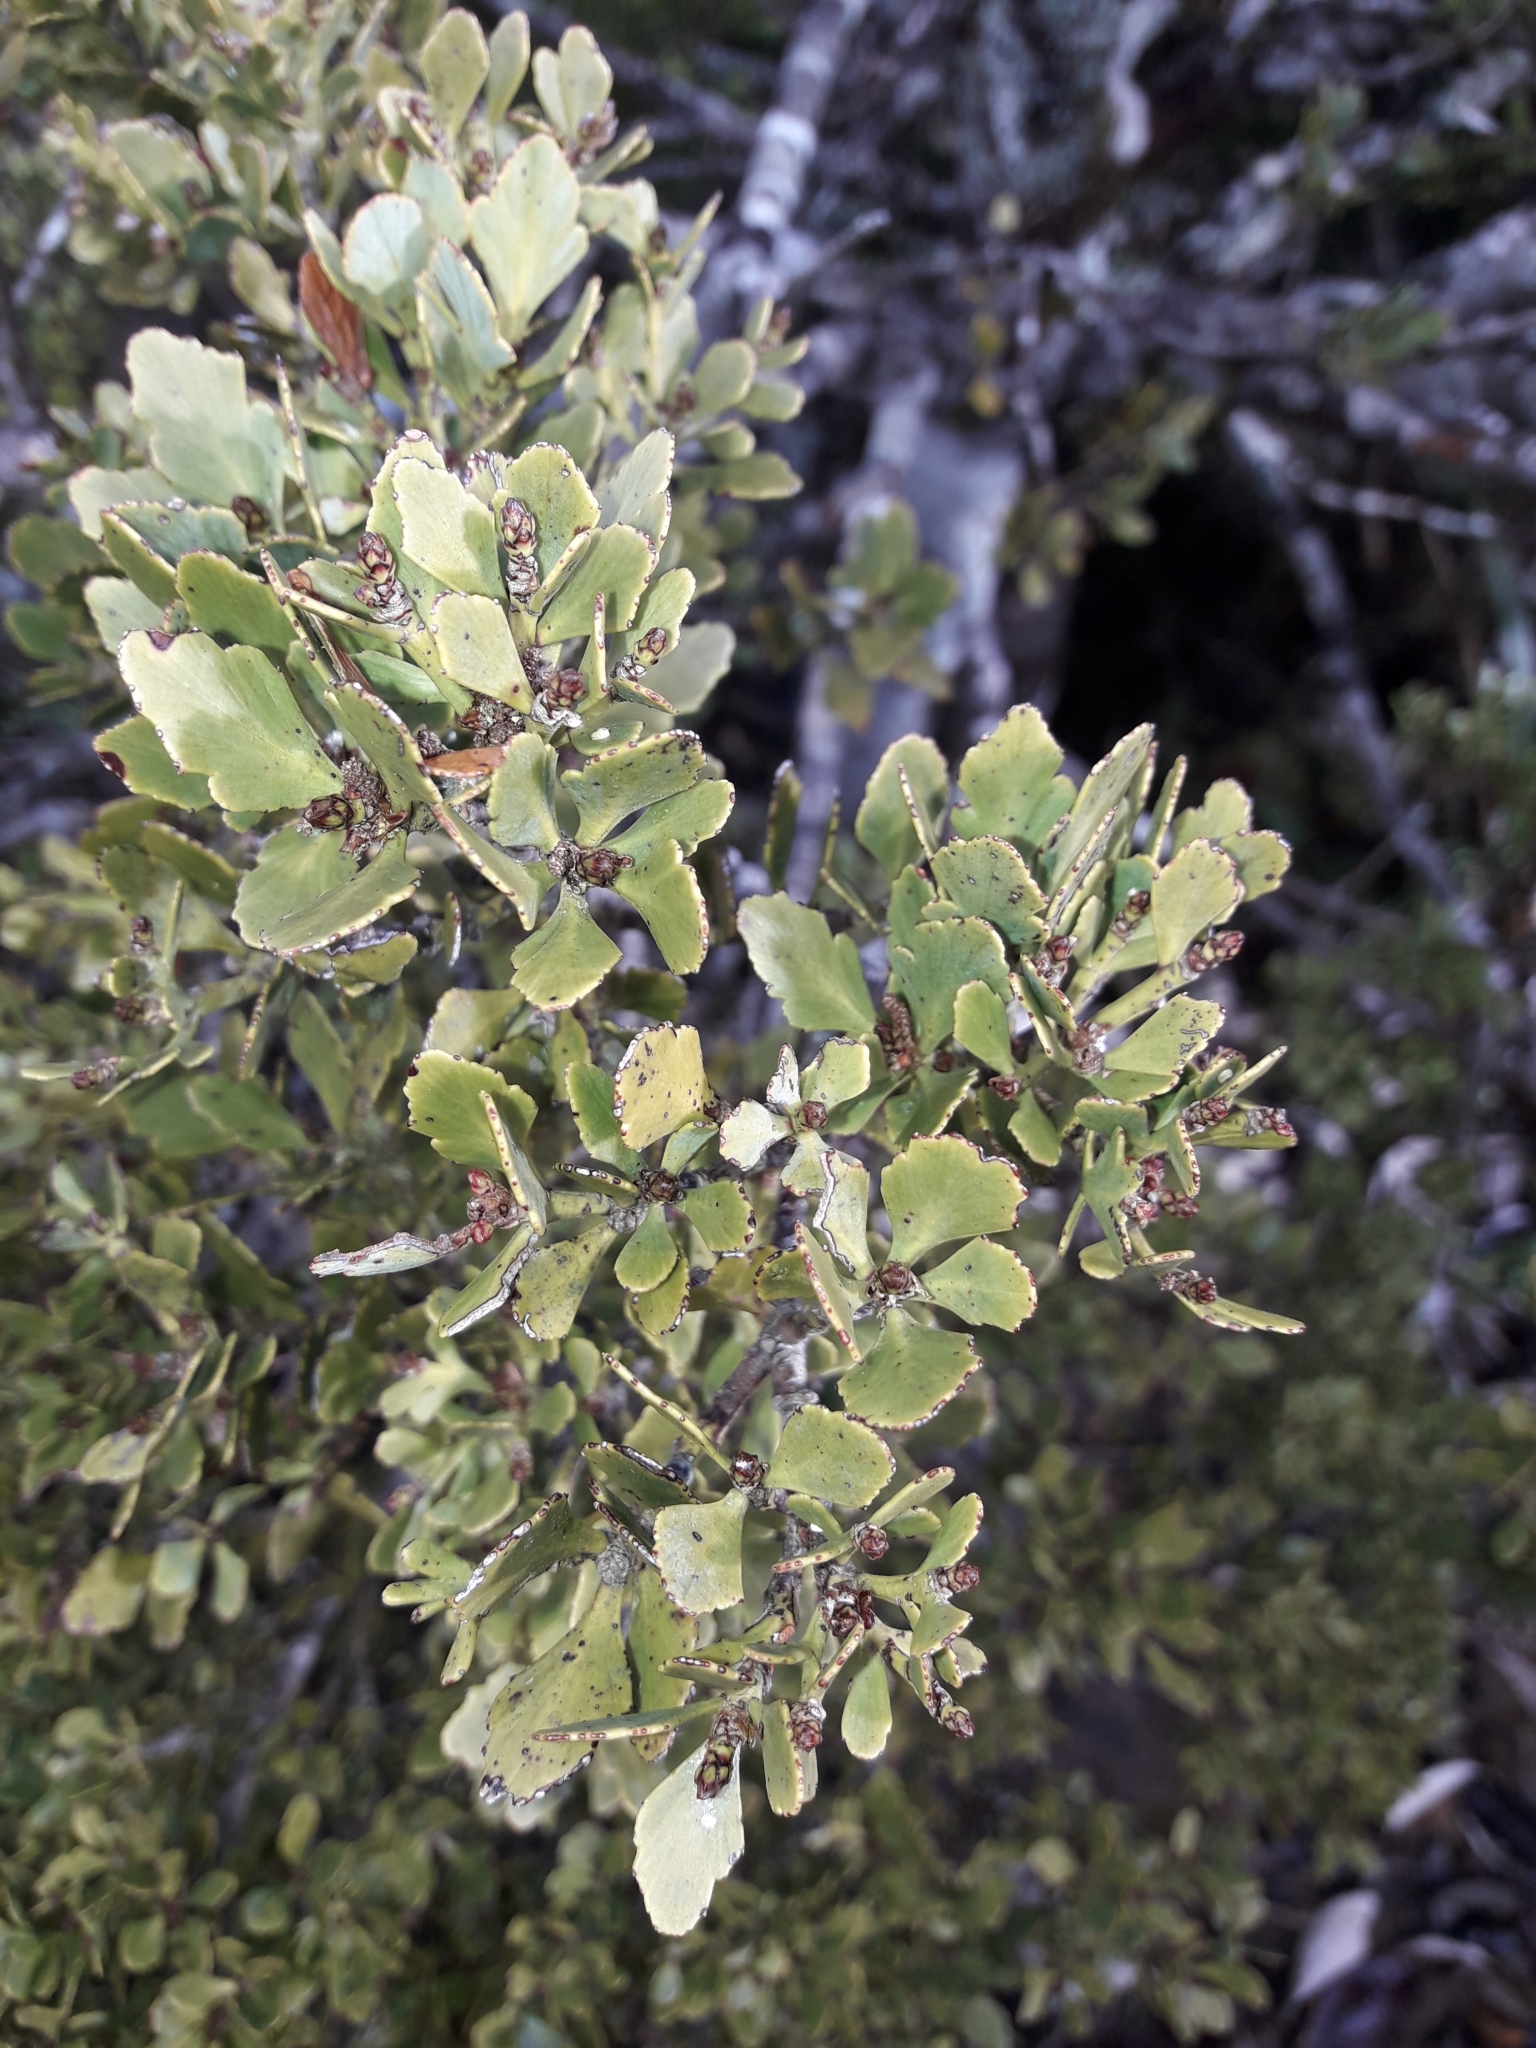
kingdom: Plantae
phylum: Tracheophyta
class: Pinopsida
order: Pinales
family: Phyllocladaceae
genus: Phyllocladus
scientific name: Phyllocladus trichomanoides
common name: Celery pine
